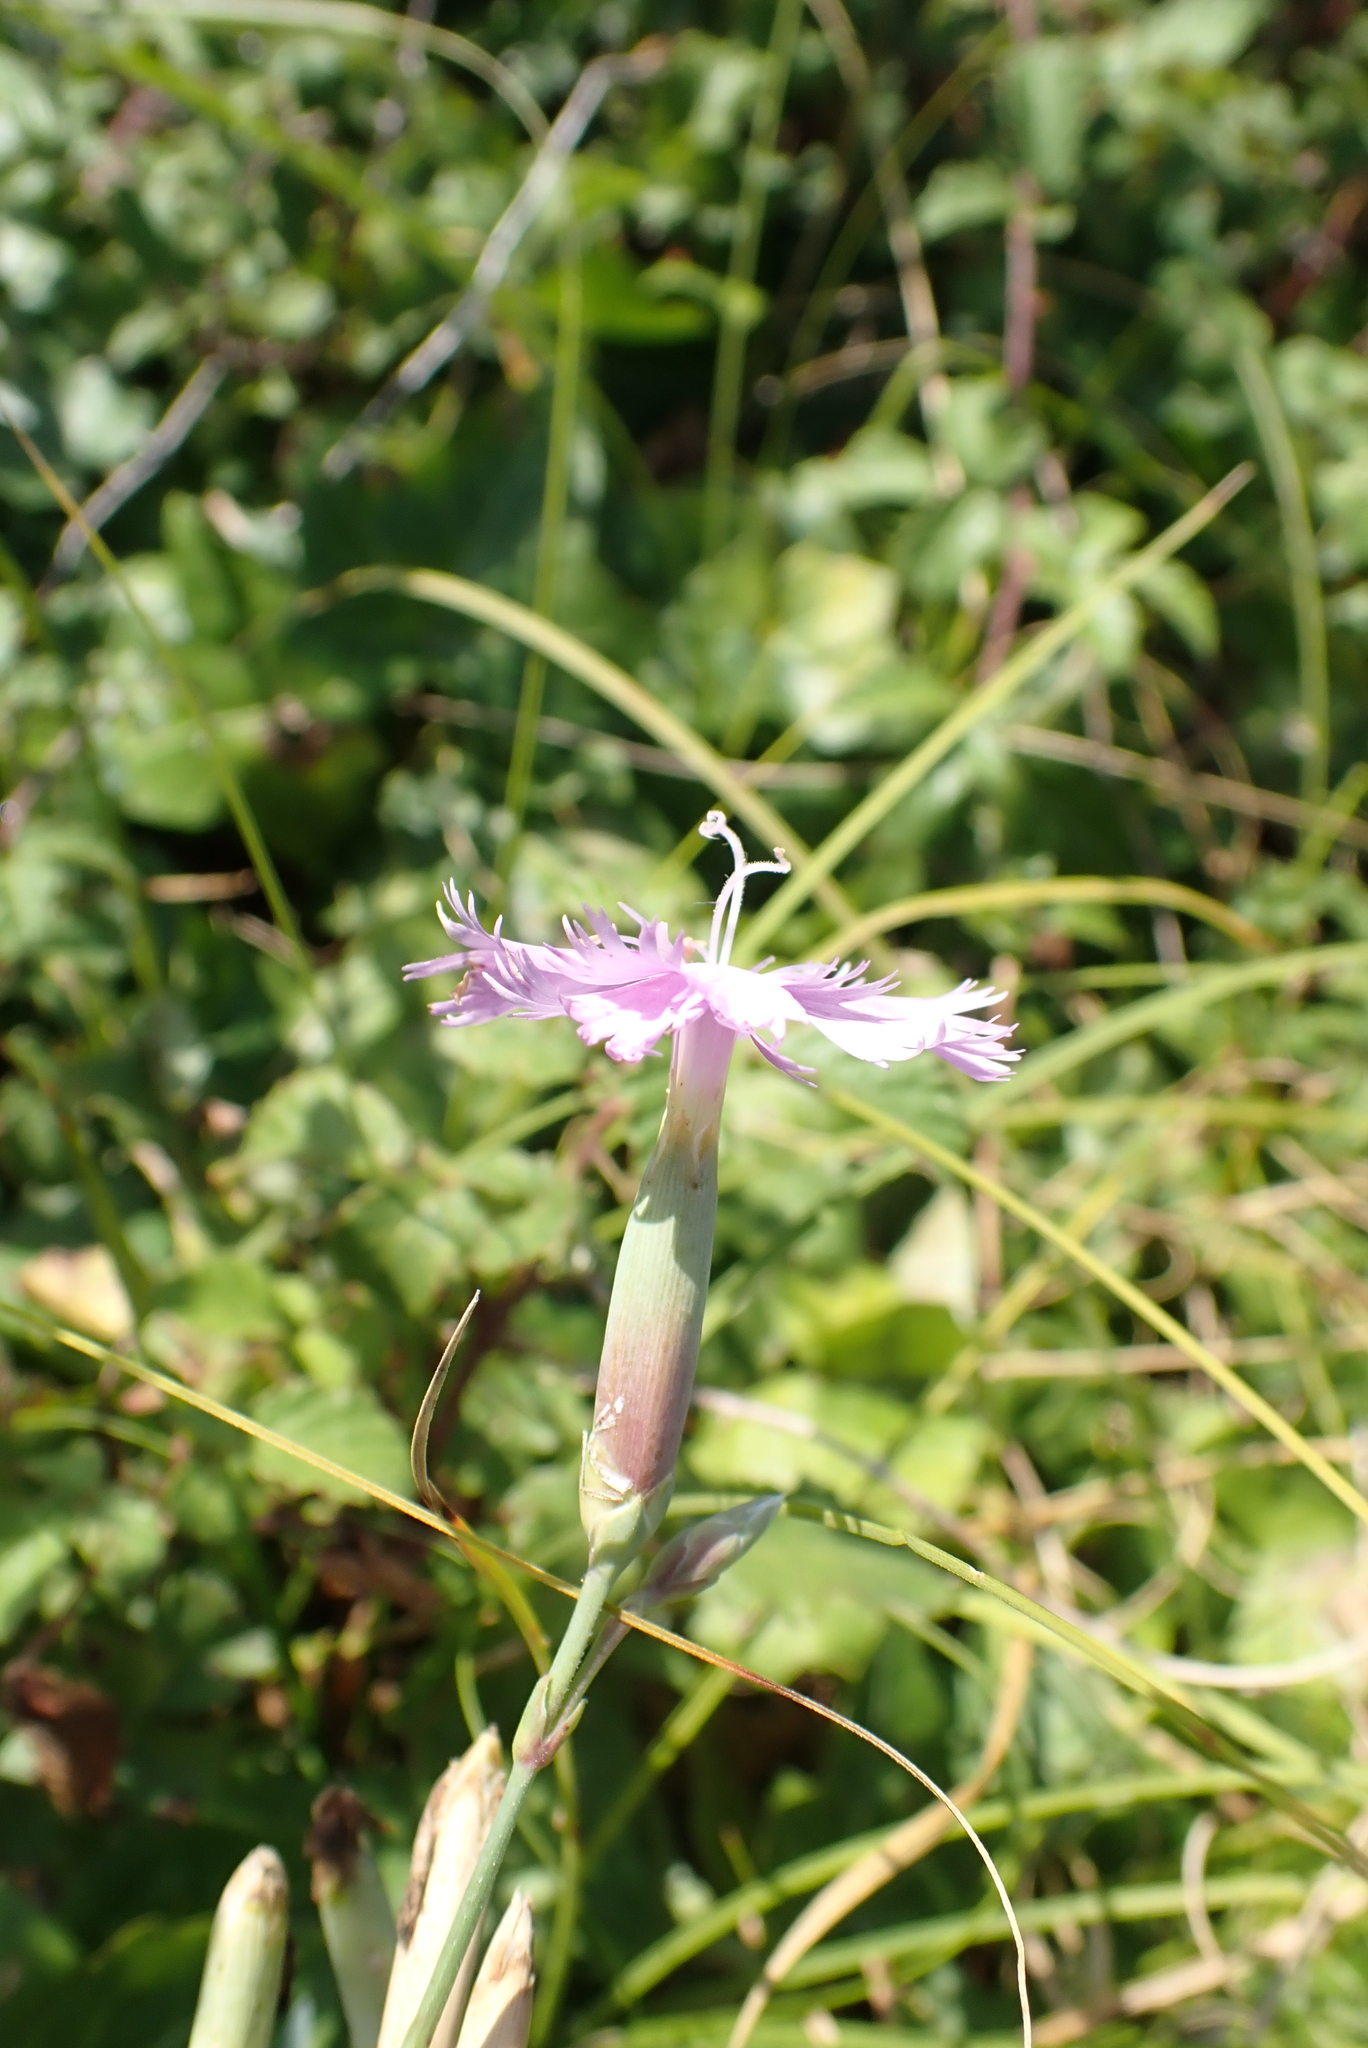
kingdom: Plantae
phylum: Tracheophyta
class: Magnoliopsida
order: Caryophyllales
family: Caryophyllaceae
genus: Dianthus
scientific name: Dianthus gallicus
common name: Jersey pink
